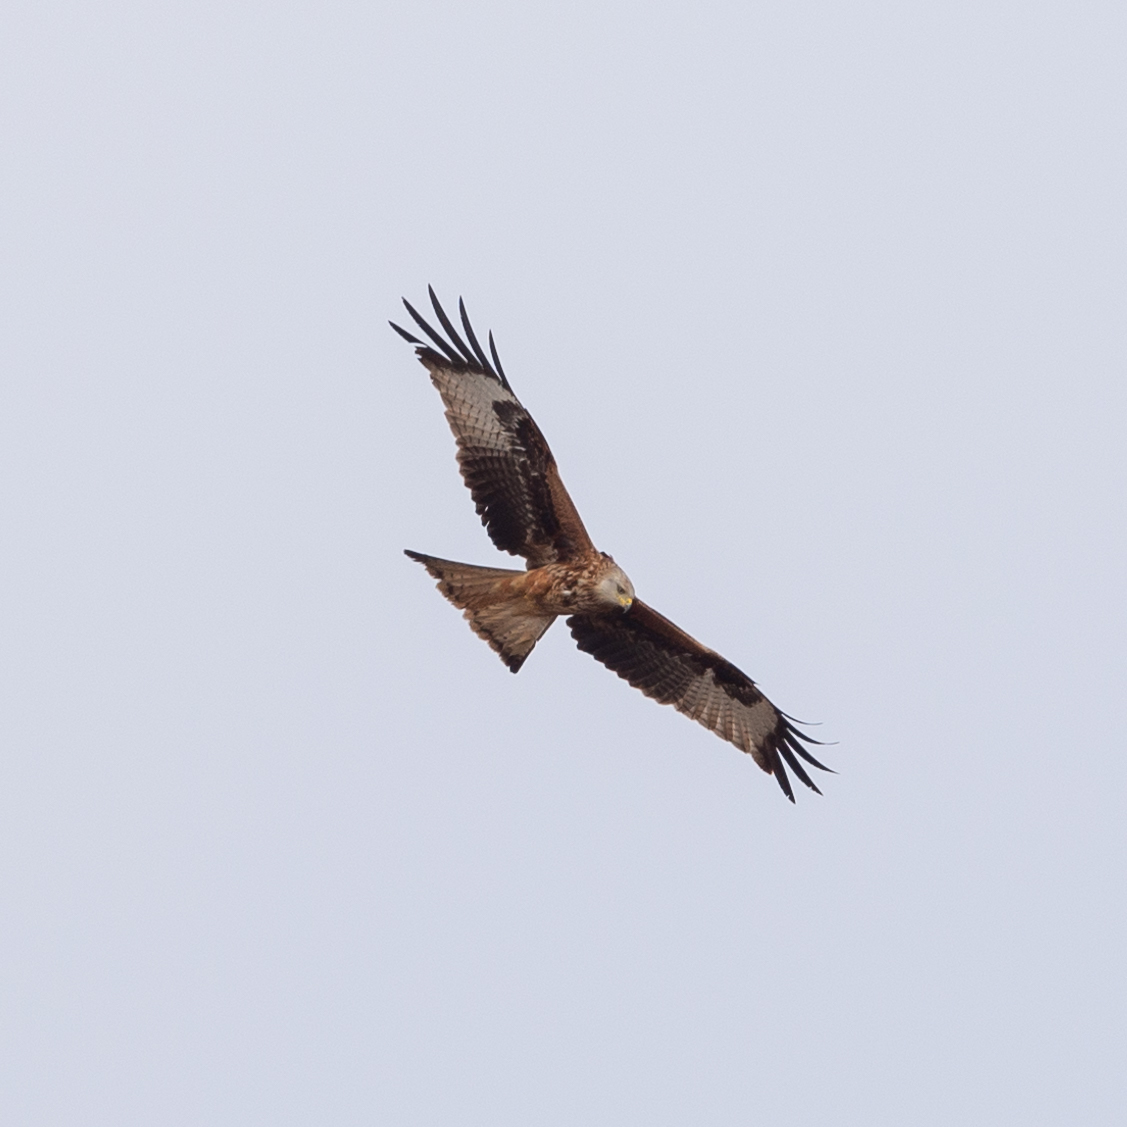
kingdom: Animalia
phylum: Chordata
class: Aves
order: Accipitriformes
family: Accipitridae
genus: Milvus
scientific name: Milvus milvus
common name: Red kite
